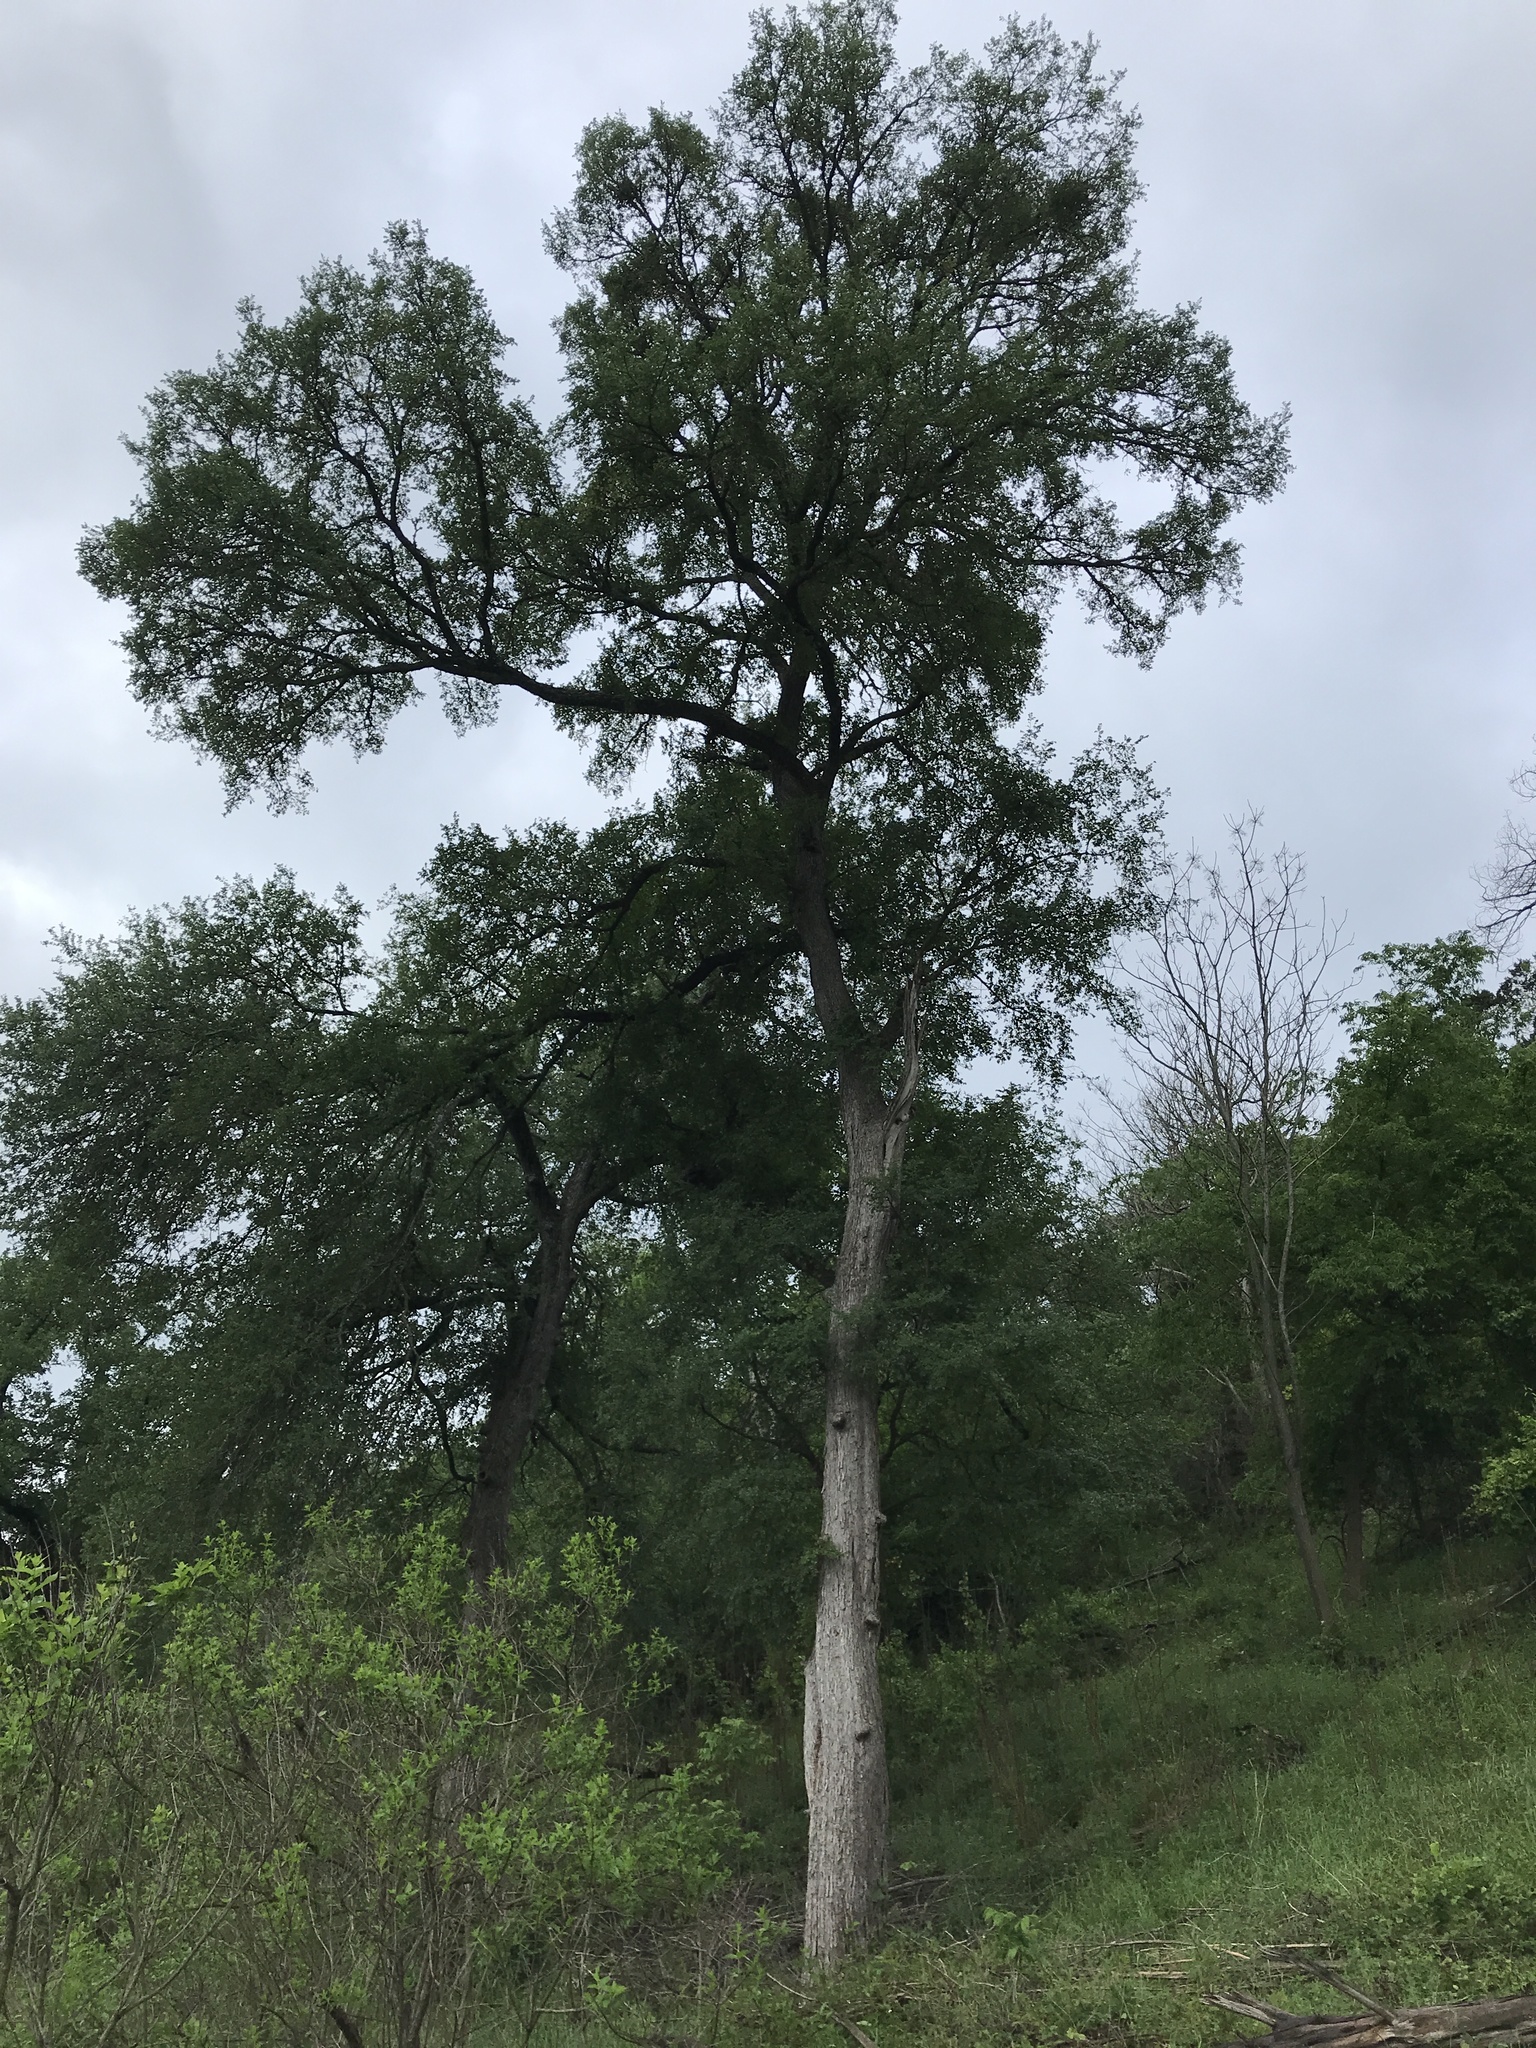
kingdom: Plantae
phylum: Tracheophyta
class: Magnoliopsida
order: Rosales
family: Ulmaceae
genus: Ulmus
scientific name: Ulmus crassifolia
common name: Basket elm
